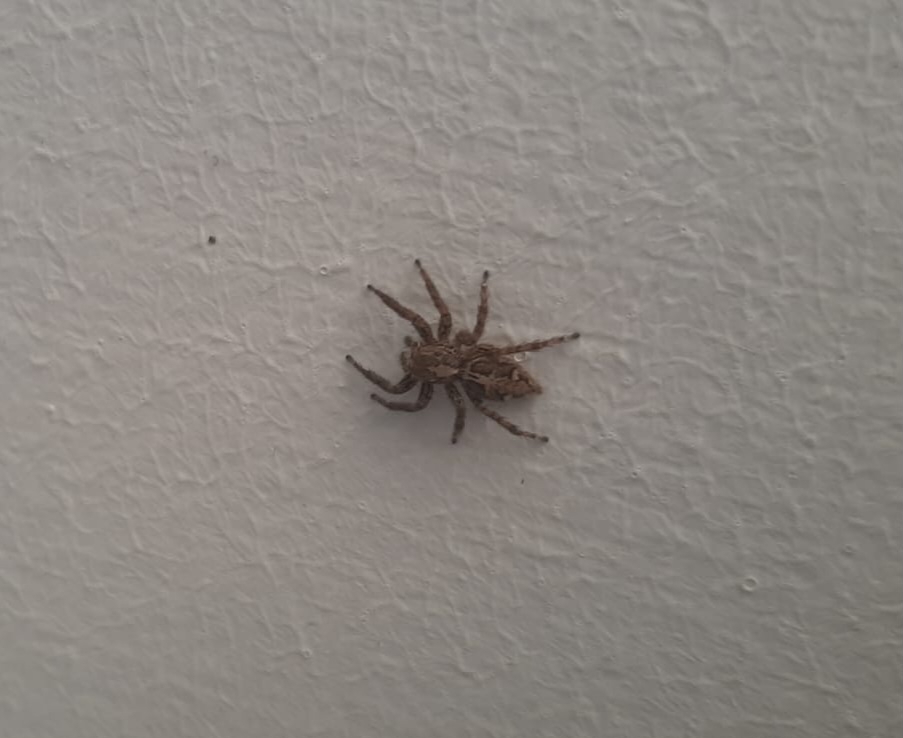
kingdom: Animalia
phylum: Arthropoda
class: Arachnida
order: Araneae
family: Salticidae
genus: Plexippus
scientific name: Plexippus paykulli
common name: Pantropical jumper
